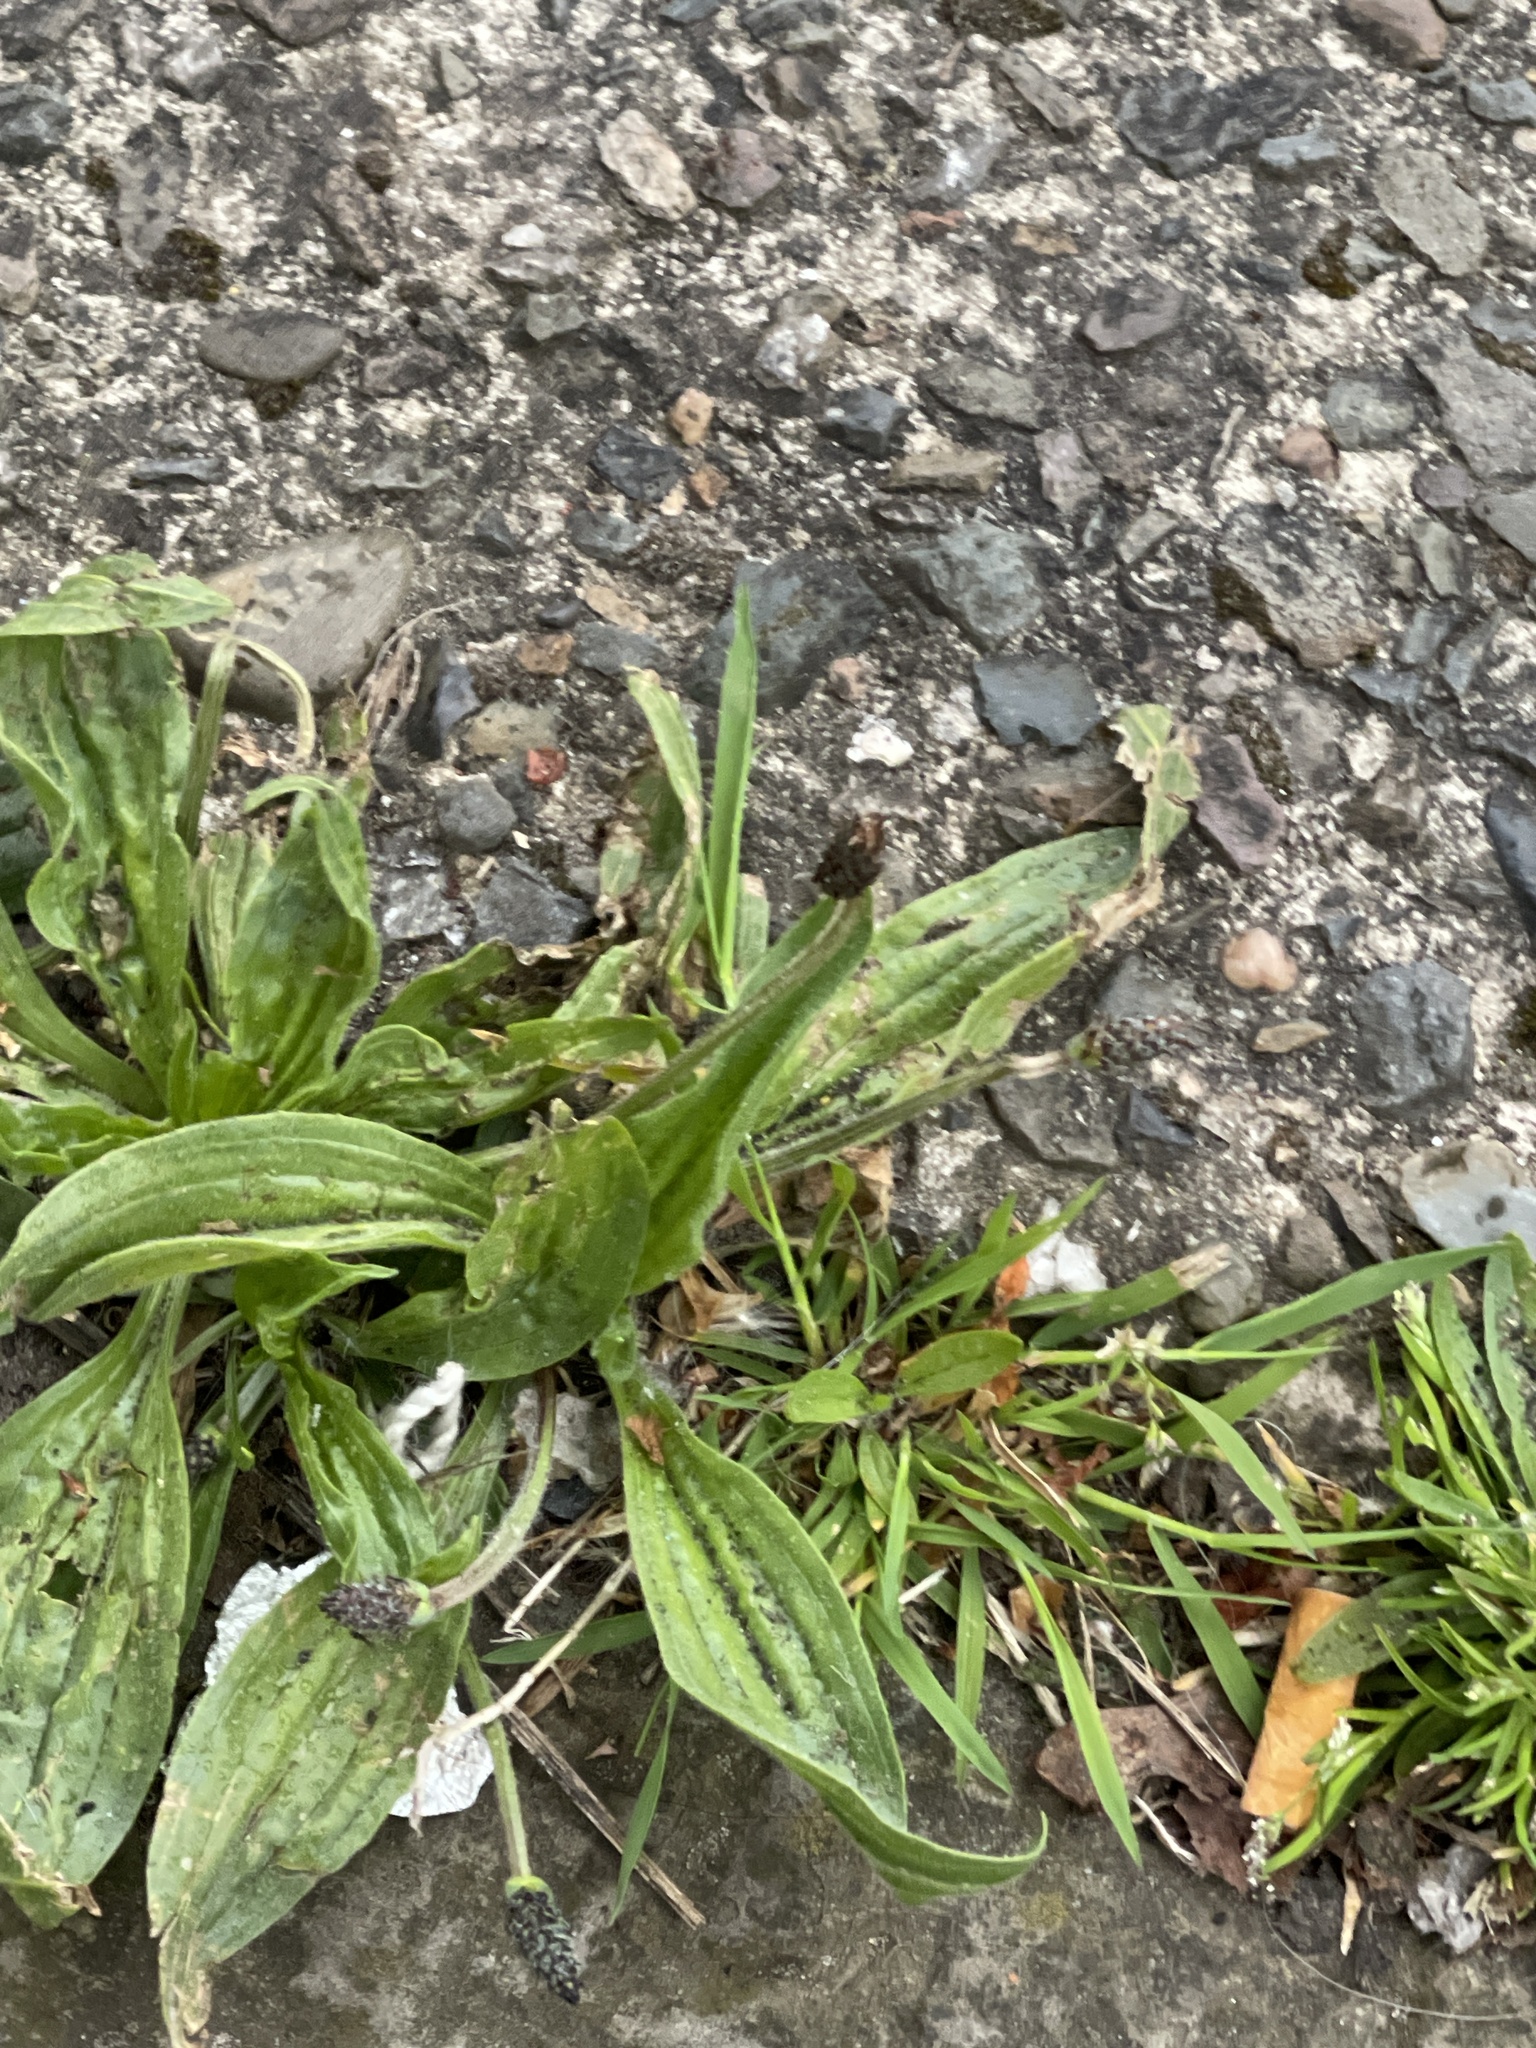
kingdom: Plantae
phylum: Tracheophyta
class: Magnoliopsida
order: Lamiales
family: Plantaginaceae
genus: Plantago
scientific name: Plantago lanceolata
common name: Ribwort plantain
